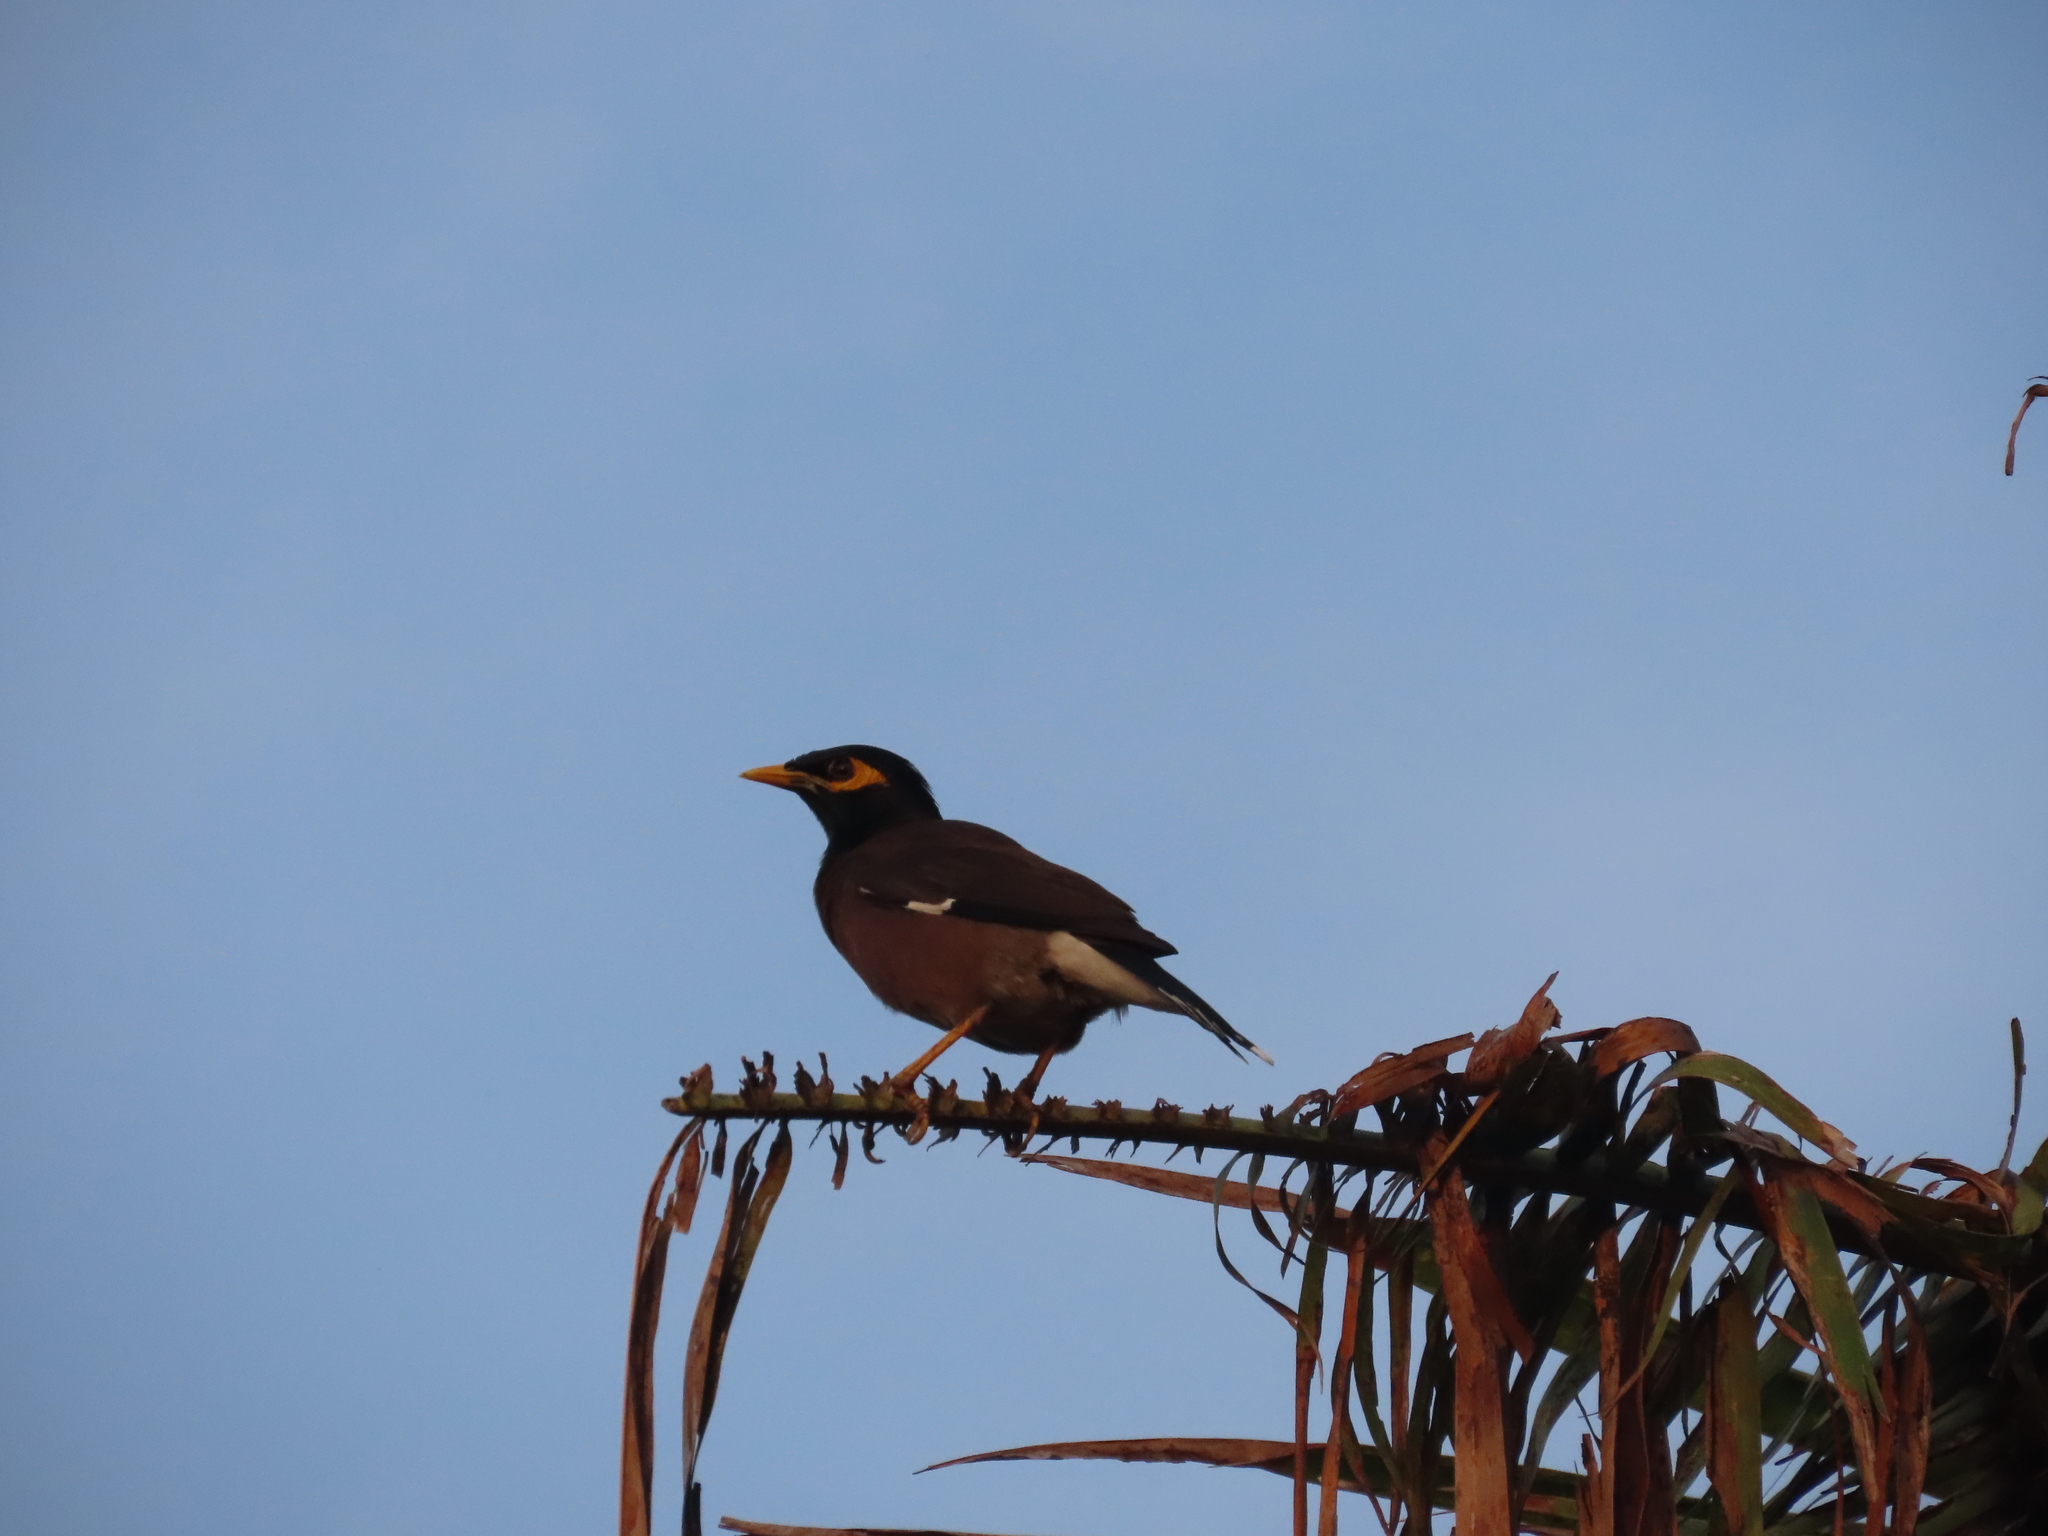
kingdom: Animalia
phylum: Chordata
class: Aves
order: Passeriformes
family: Sturnidae
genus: Acridotheres
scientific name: Acridotheres tristis
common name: Common myna
